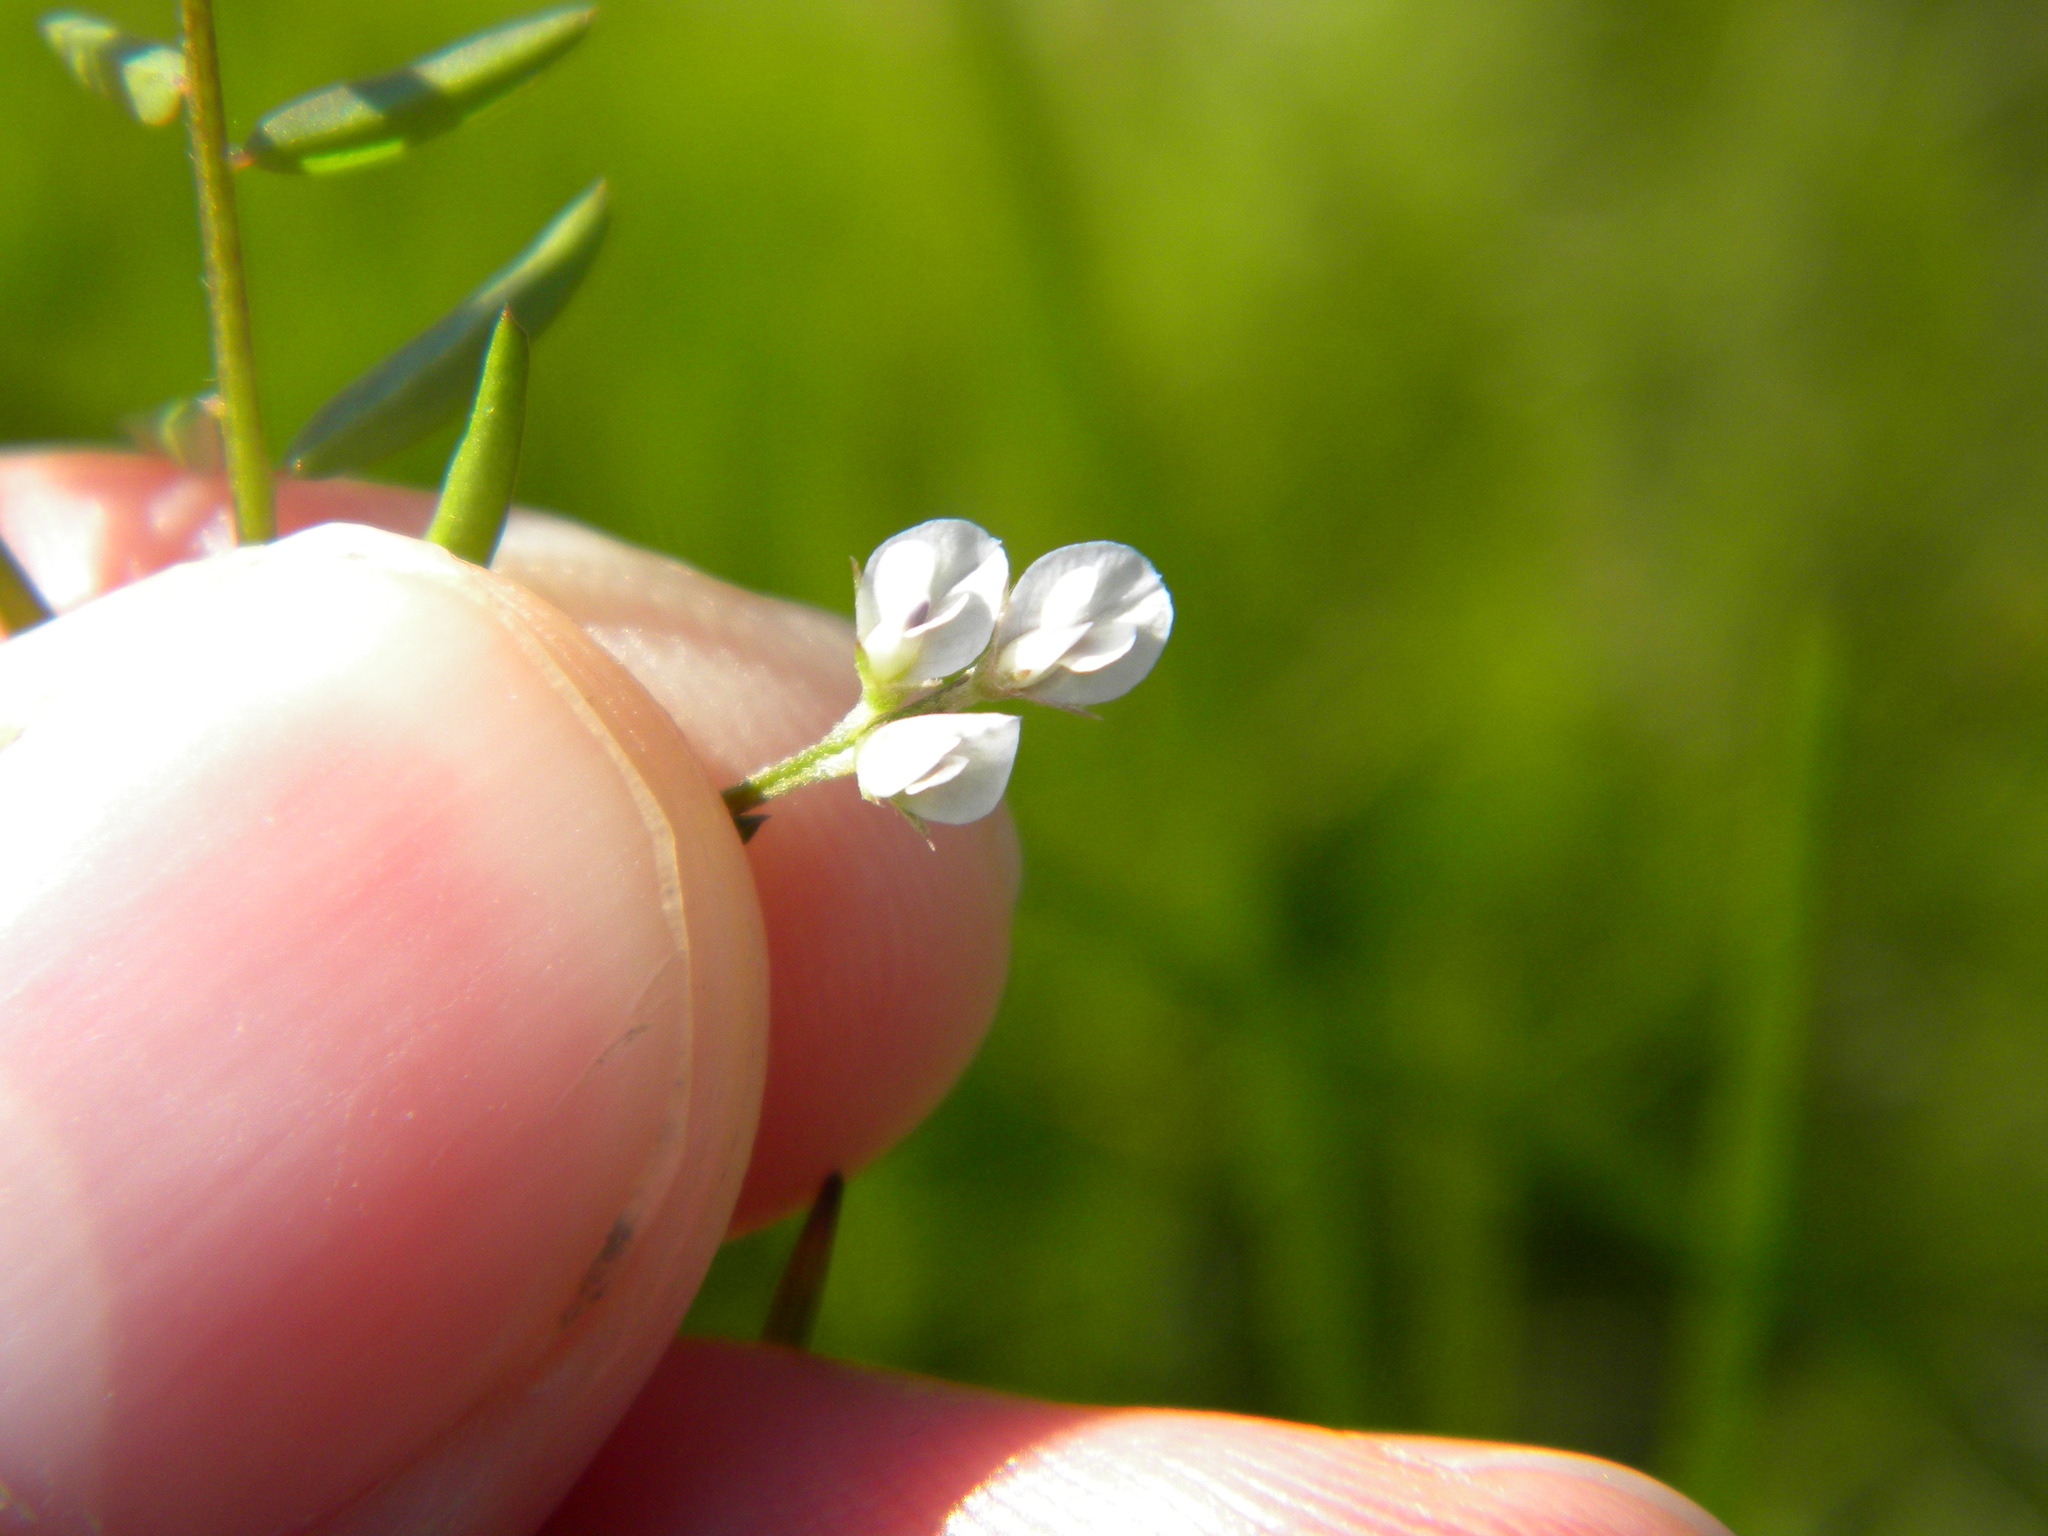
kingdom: Plantae
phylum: Tracheophyta
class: Magnoliopsida
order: Fabales
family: Fabaceae
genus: Vicia
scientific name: Vicia hirsuta
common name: Tiny vetch
